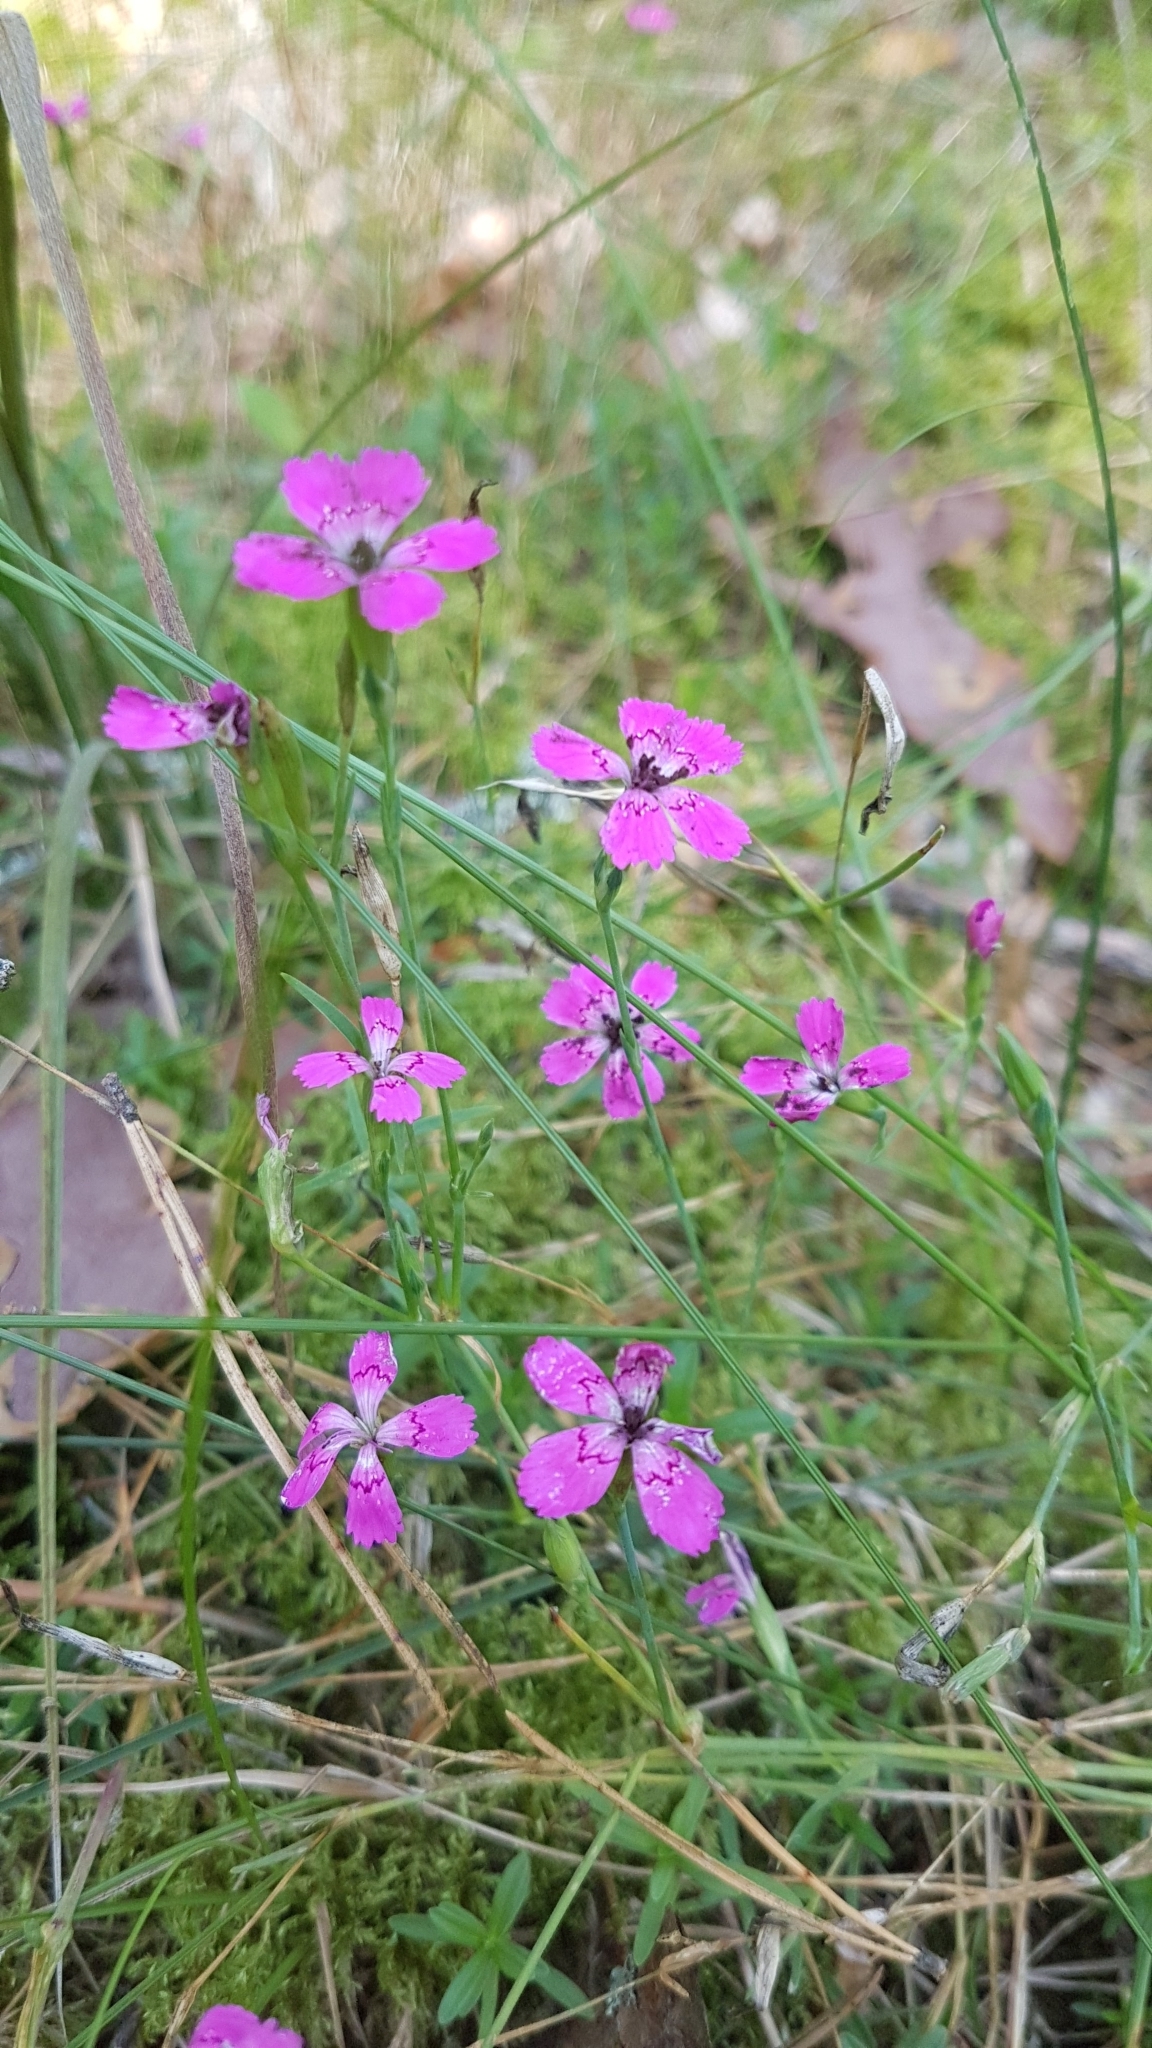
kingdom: Plantae
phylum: Tracheophyta
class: Magnoliopsida
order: Caryophyllales
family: Caryophyllaceae
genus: Dianthus
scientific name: Dianthus deltoides
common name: Maiden pink
